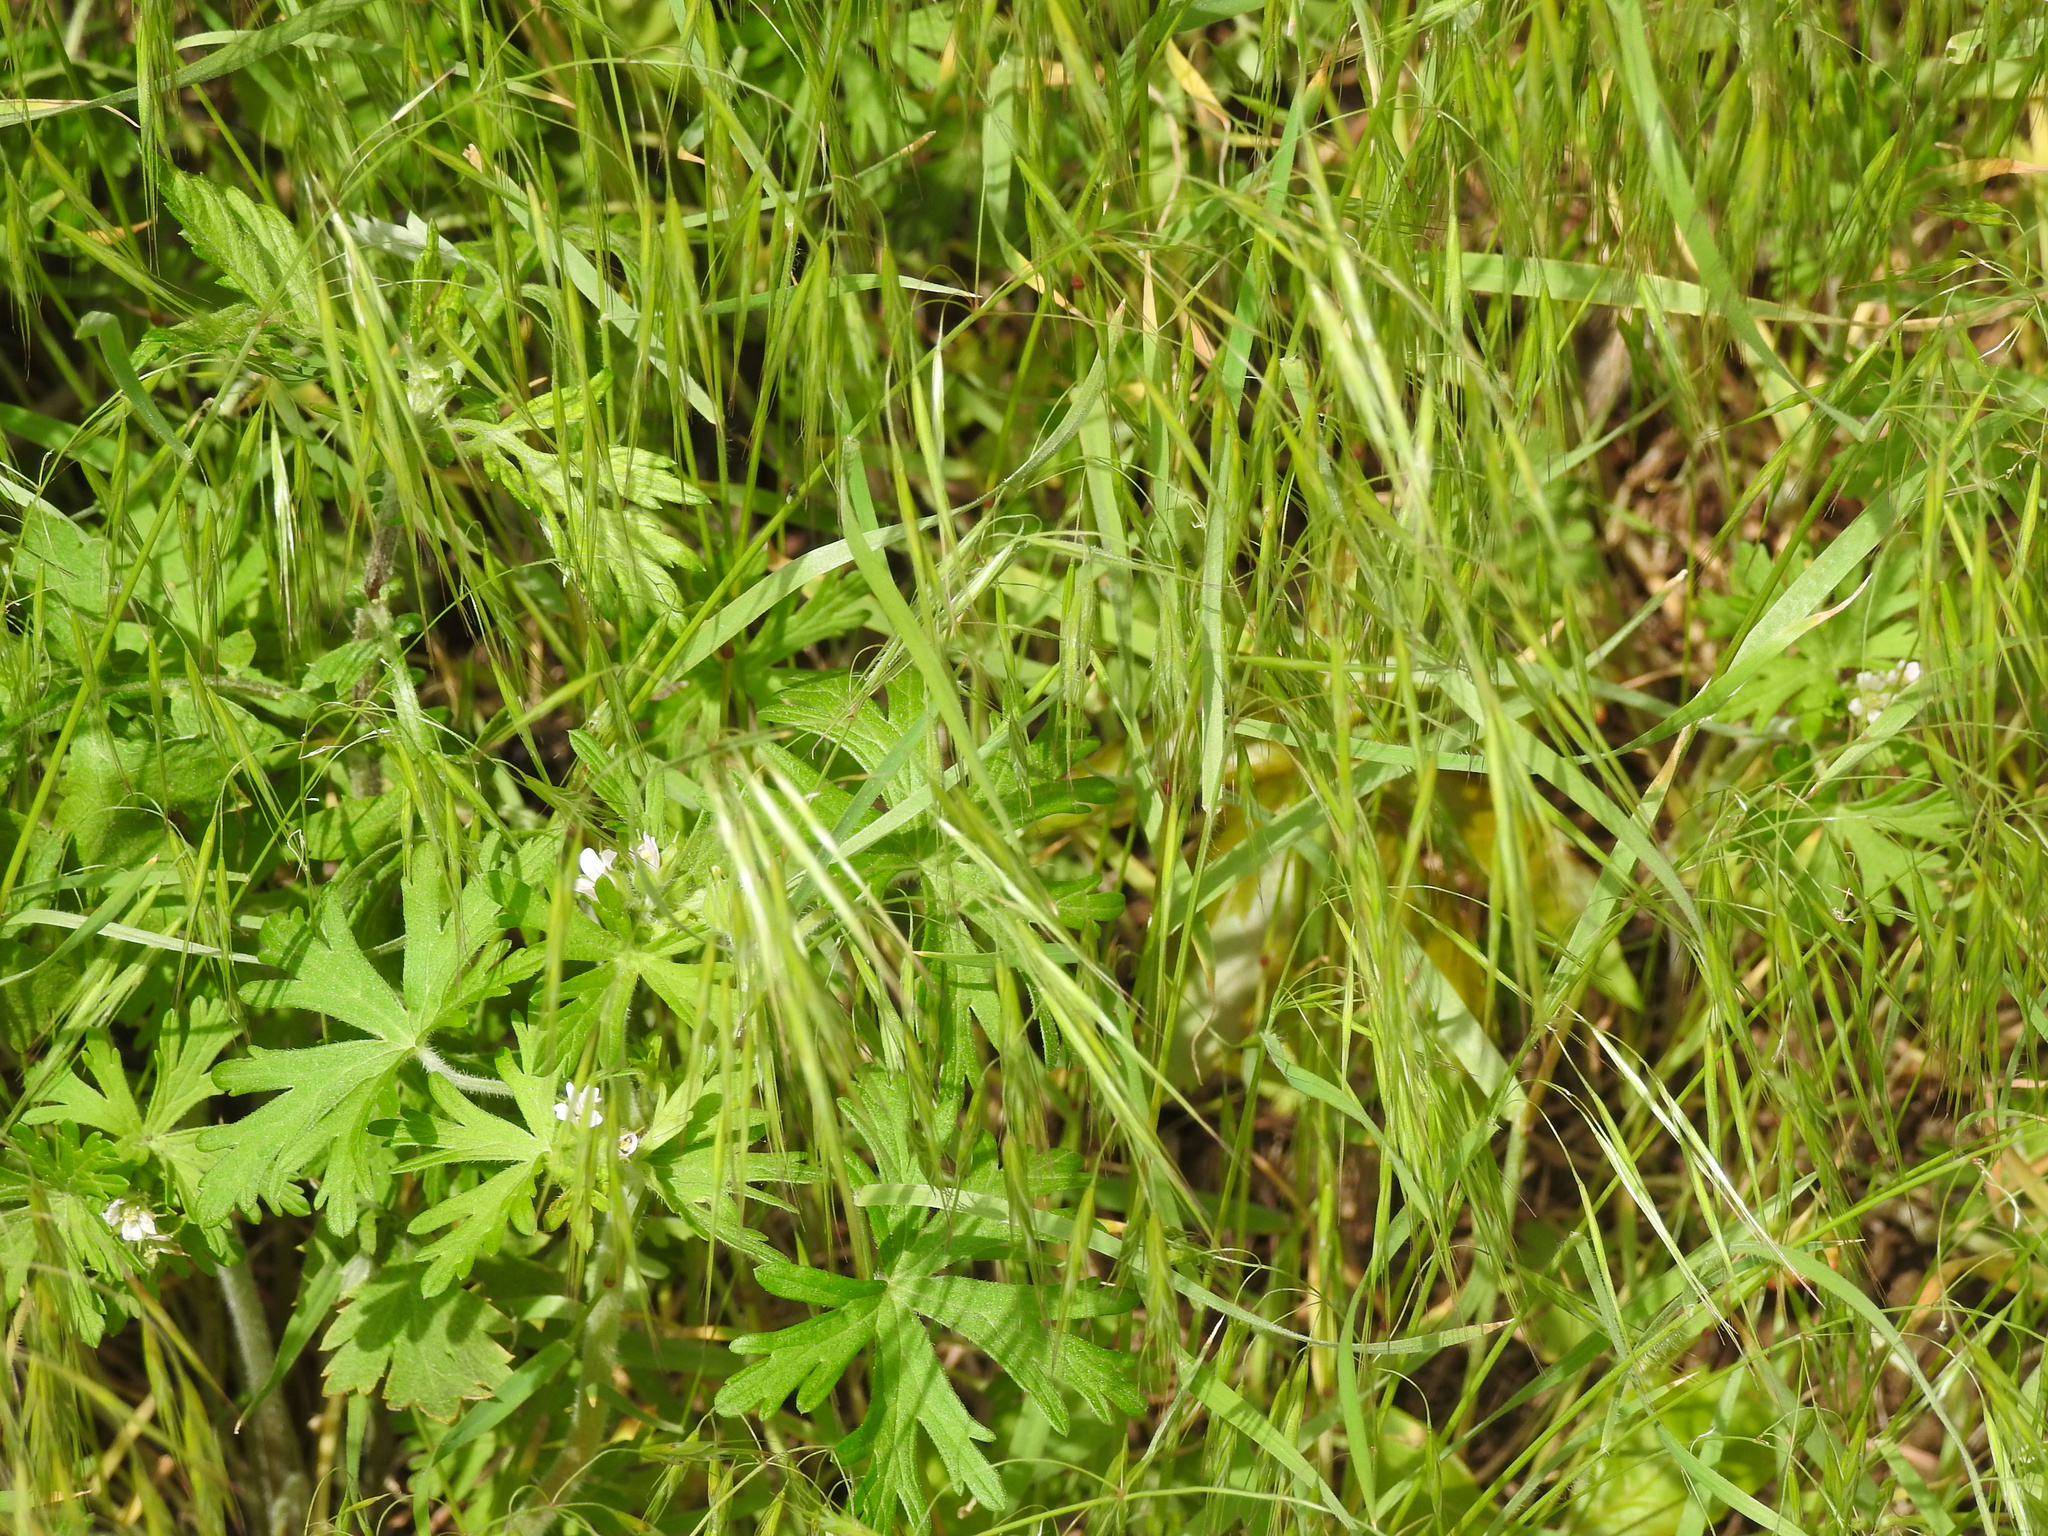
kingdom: Plantae
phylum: Tracheophyta
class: Liliopsida
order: Poales
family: Poaceae
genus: Bromus
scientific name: Bromus tectorum
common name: Cheatgrass
